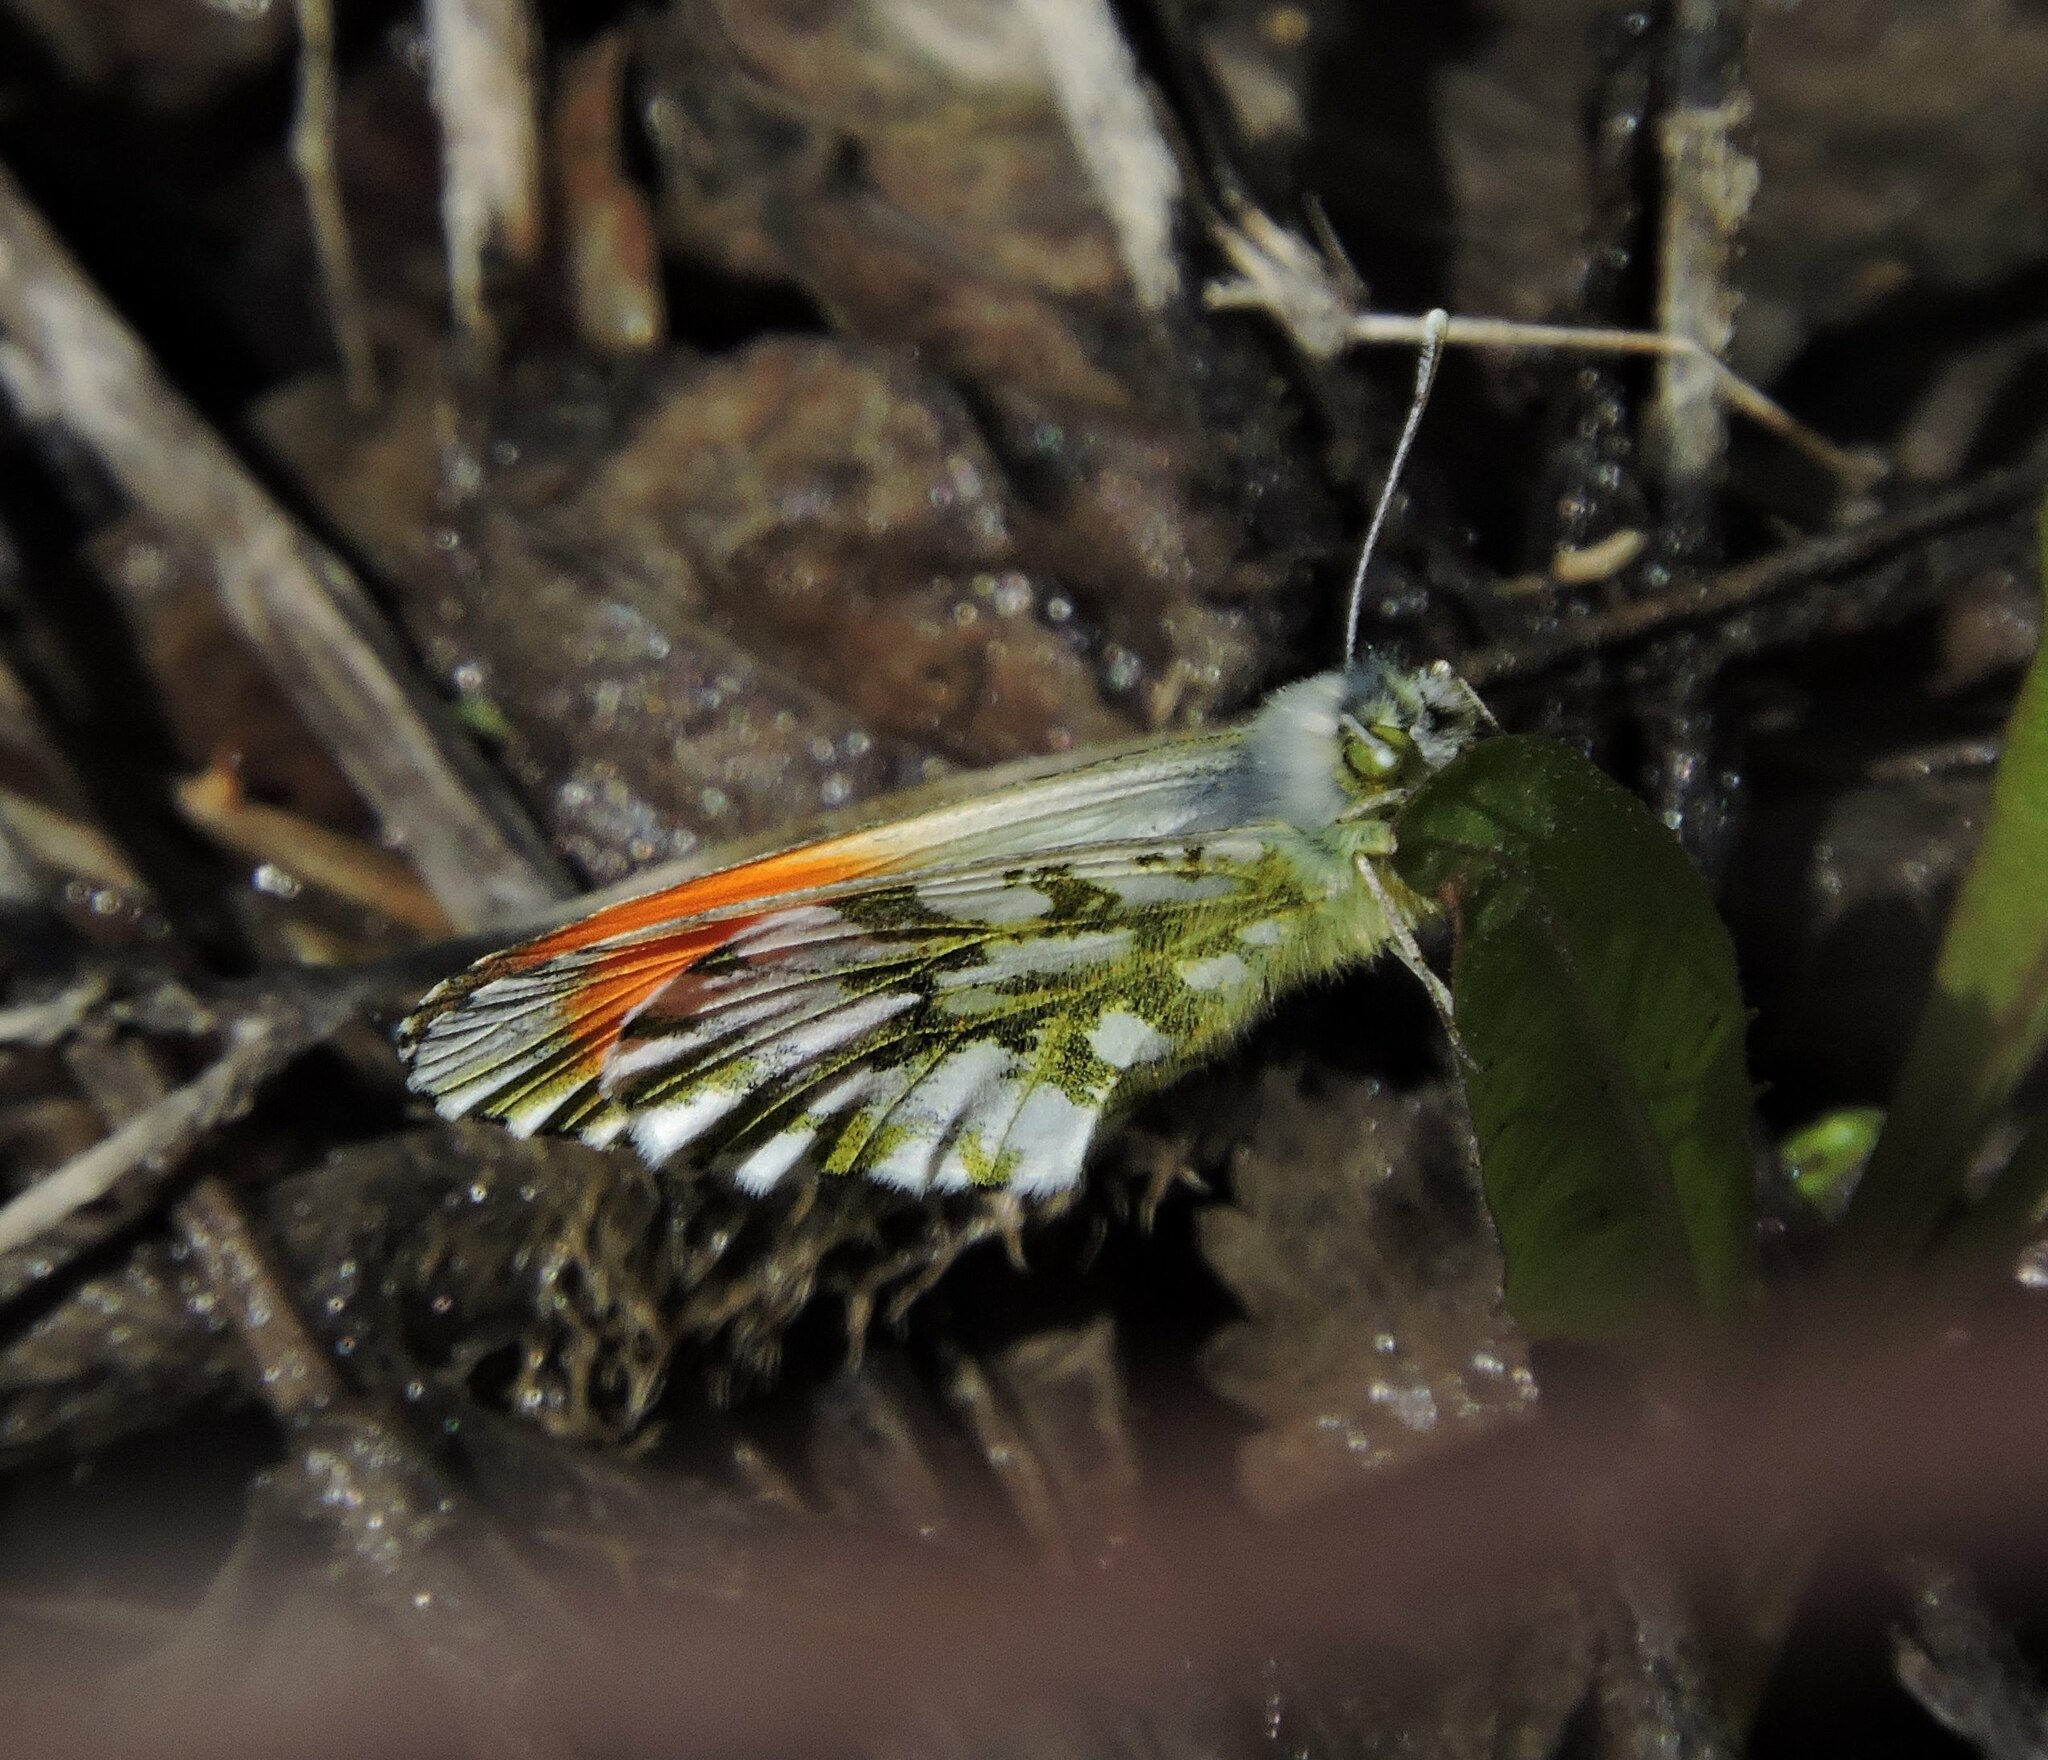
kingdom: Animalia
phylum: Arthropoda
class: Insecta
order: Lepidoptera
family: Pieridae
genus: Anthocharis
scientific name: Anthocharis cardamines
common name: Orange-tip
